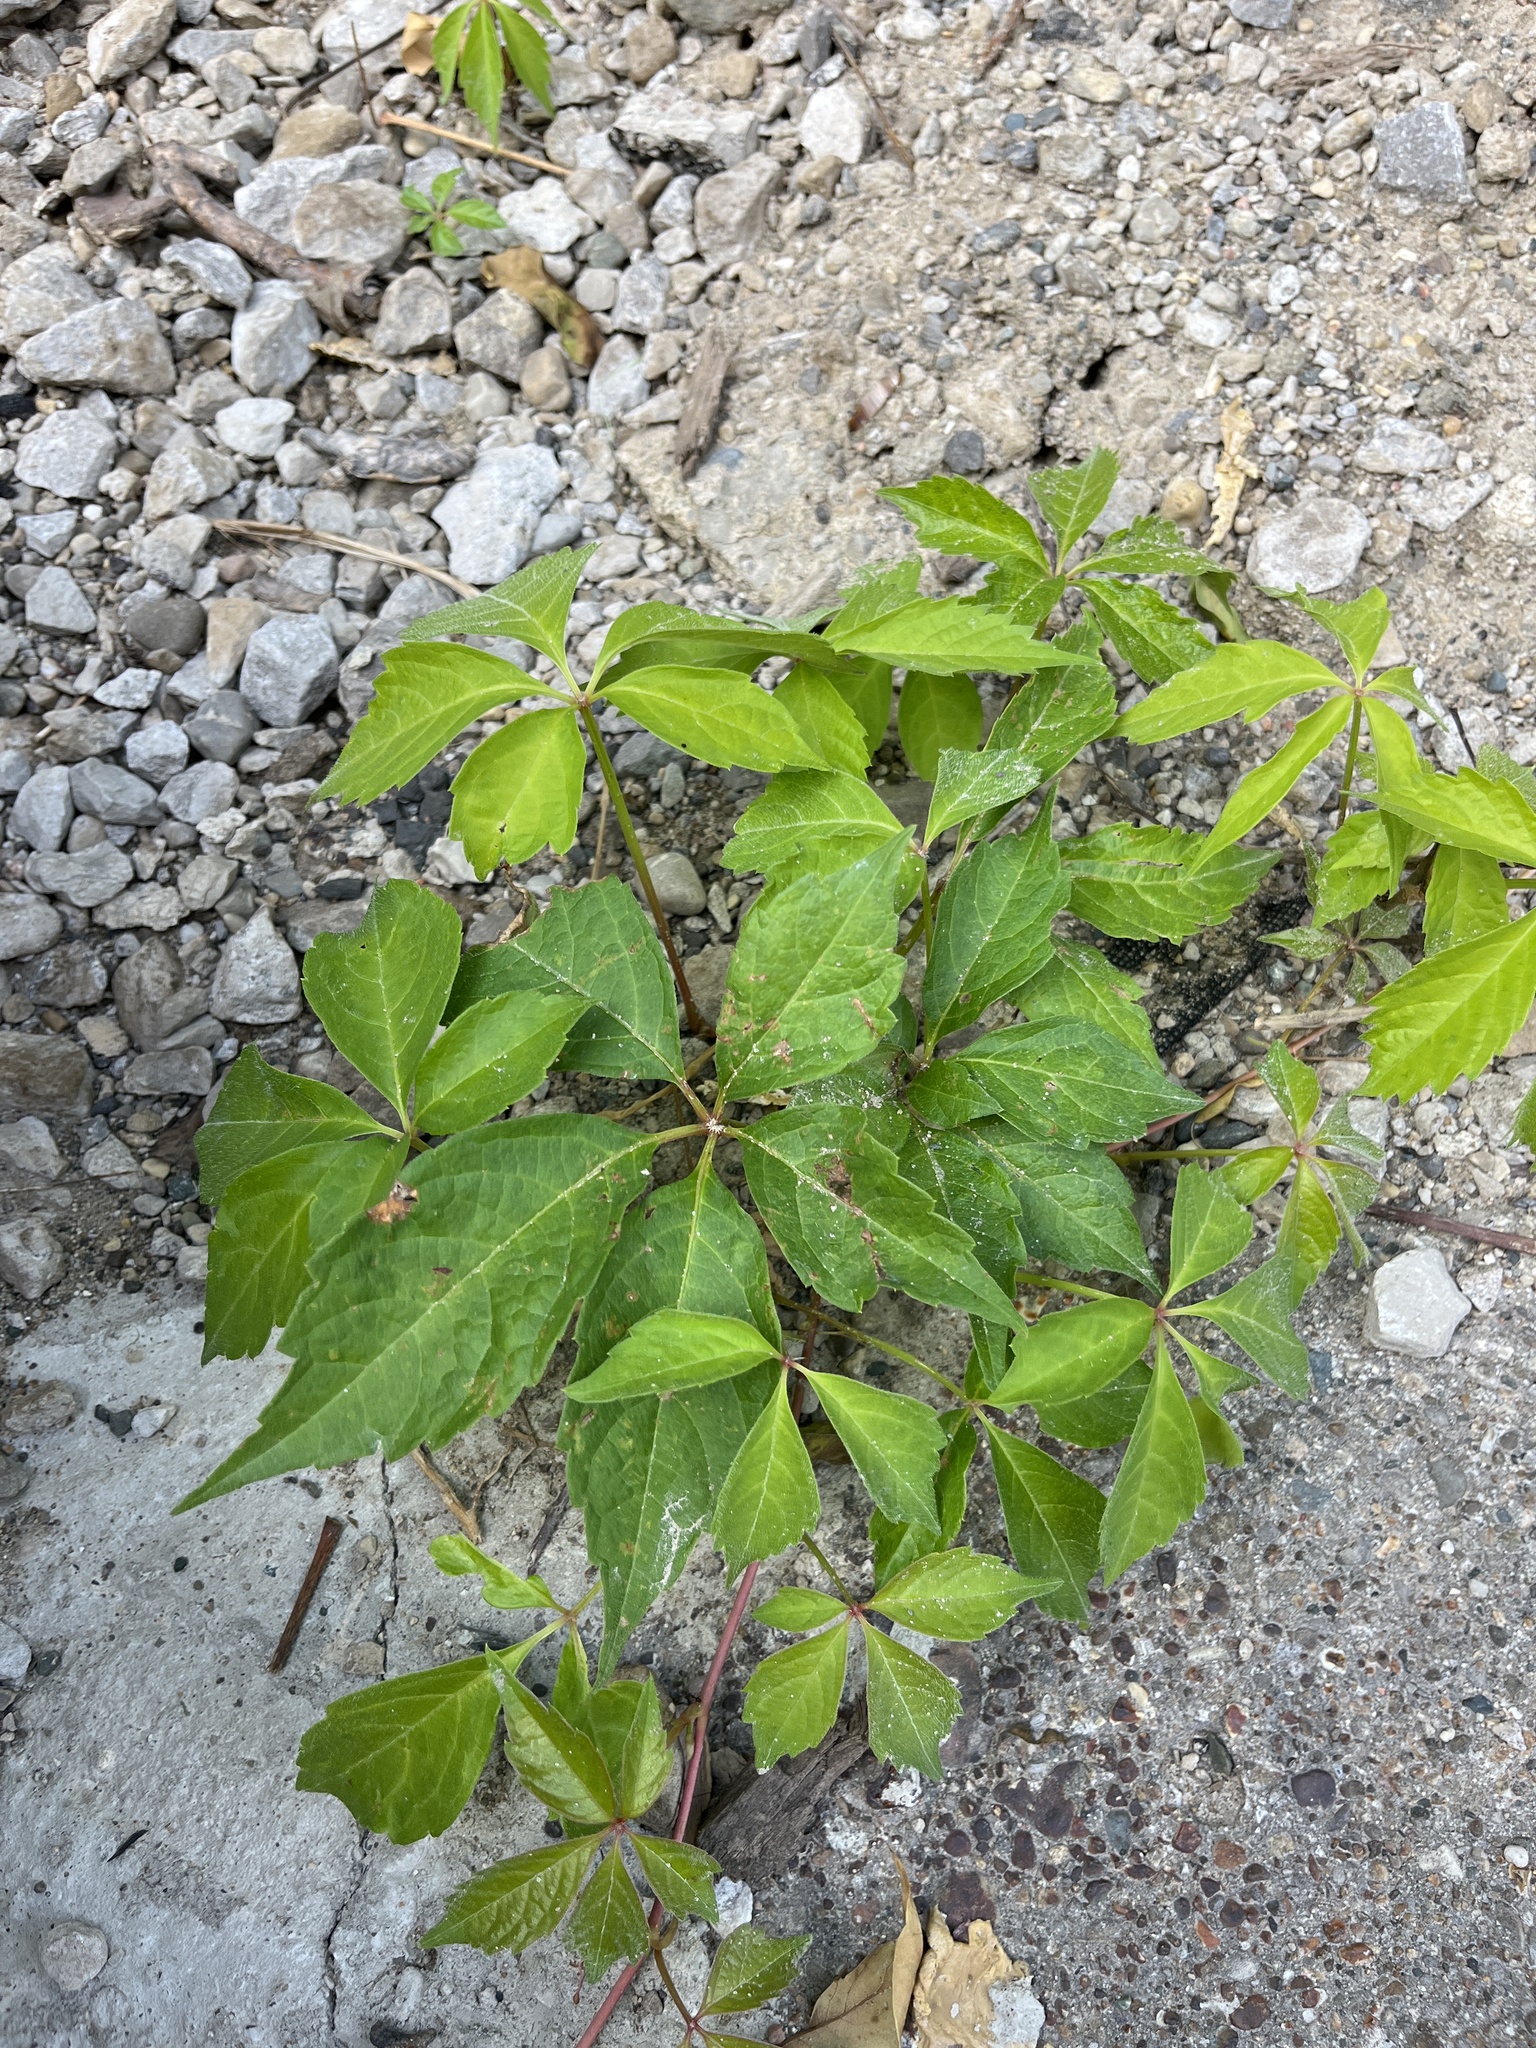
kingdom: Plantae
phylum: Tracheophyta
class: Magnoliopsida
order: Vitales
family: Vitaceae
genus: Parthenocissus
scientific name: Parthenocissus quinquefolia
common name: Virginia-creeper
